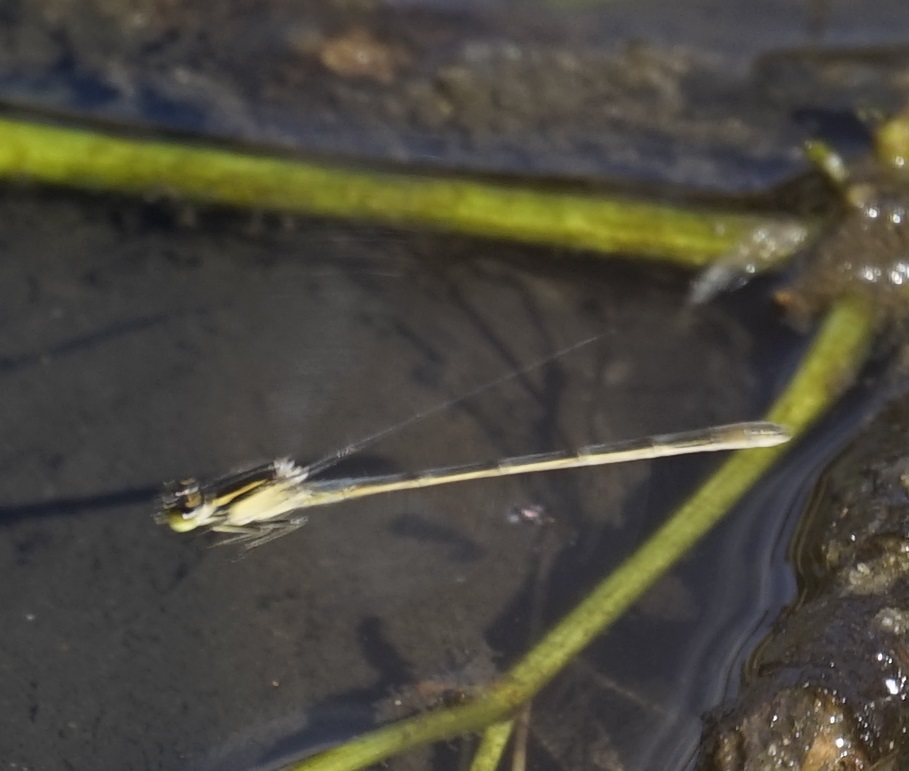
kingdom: Animalia
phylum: Arthropoda
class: Insecta
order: Odonata
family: Coenagrionidae
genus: Ischnura
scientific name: Ischnura heterosticta
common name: Common bluetail
